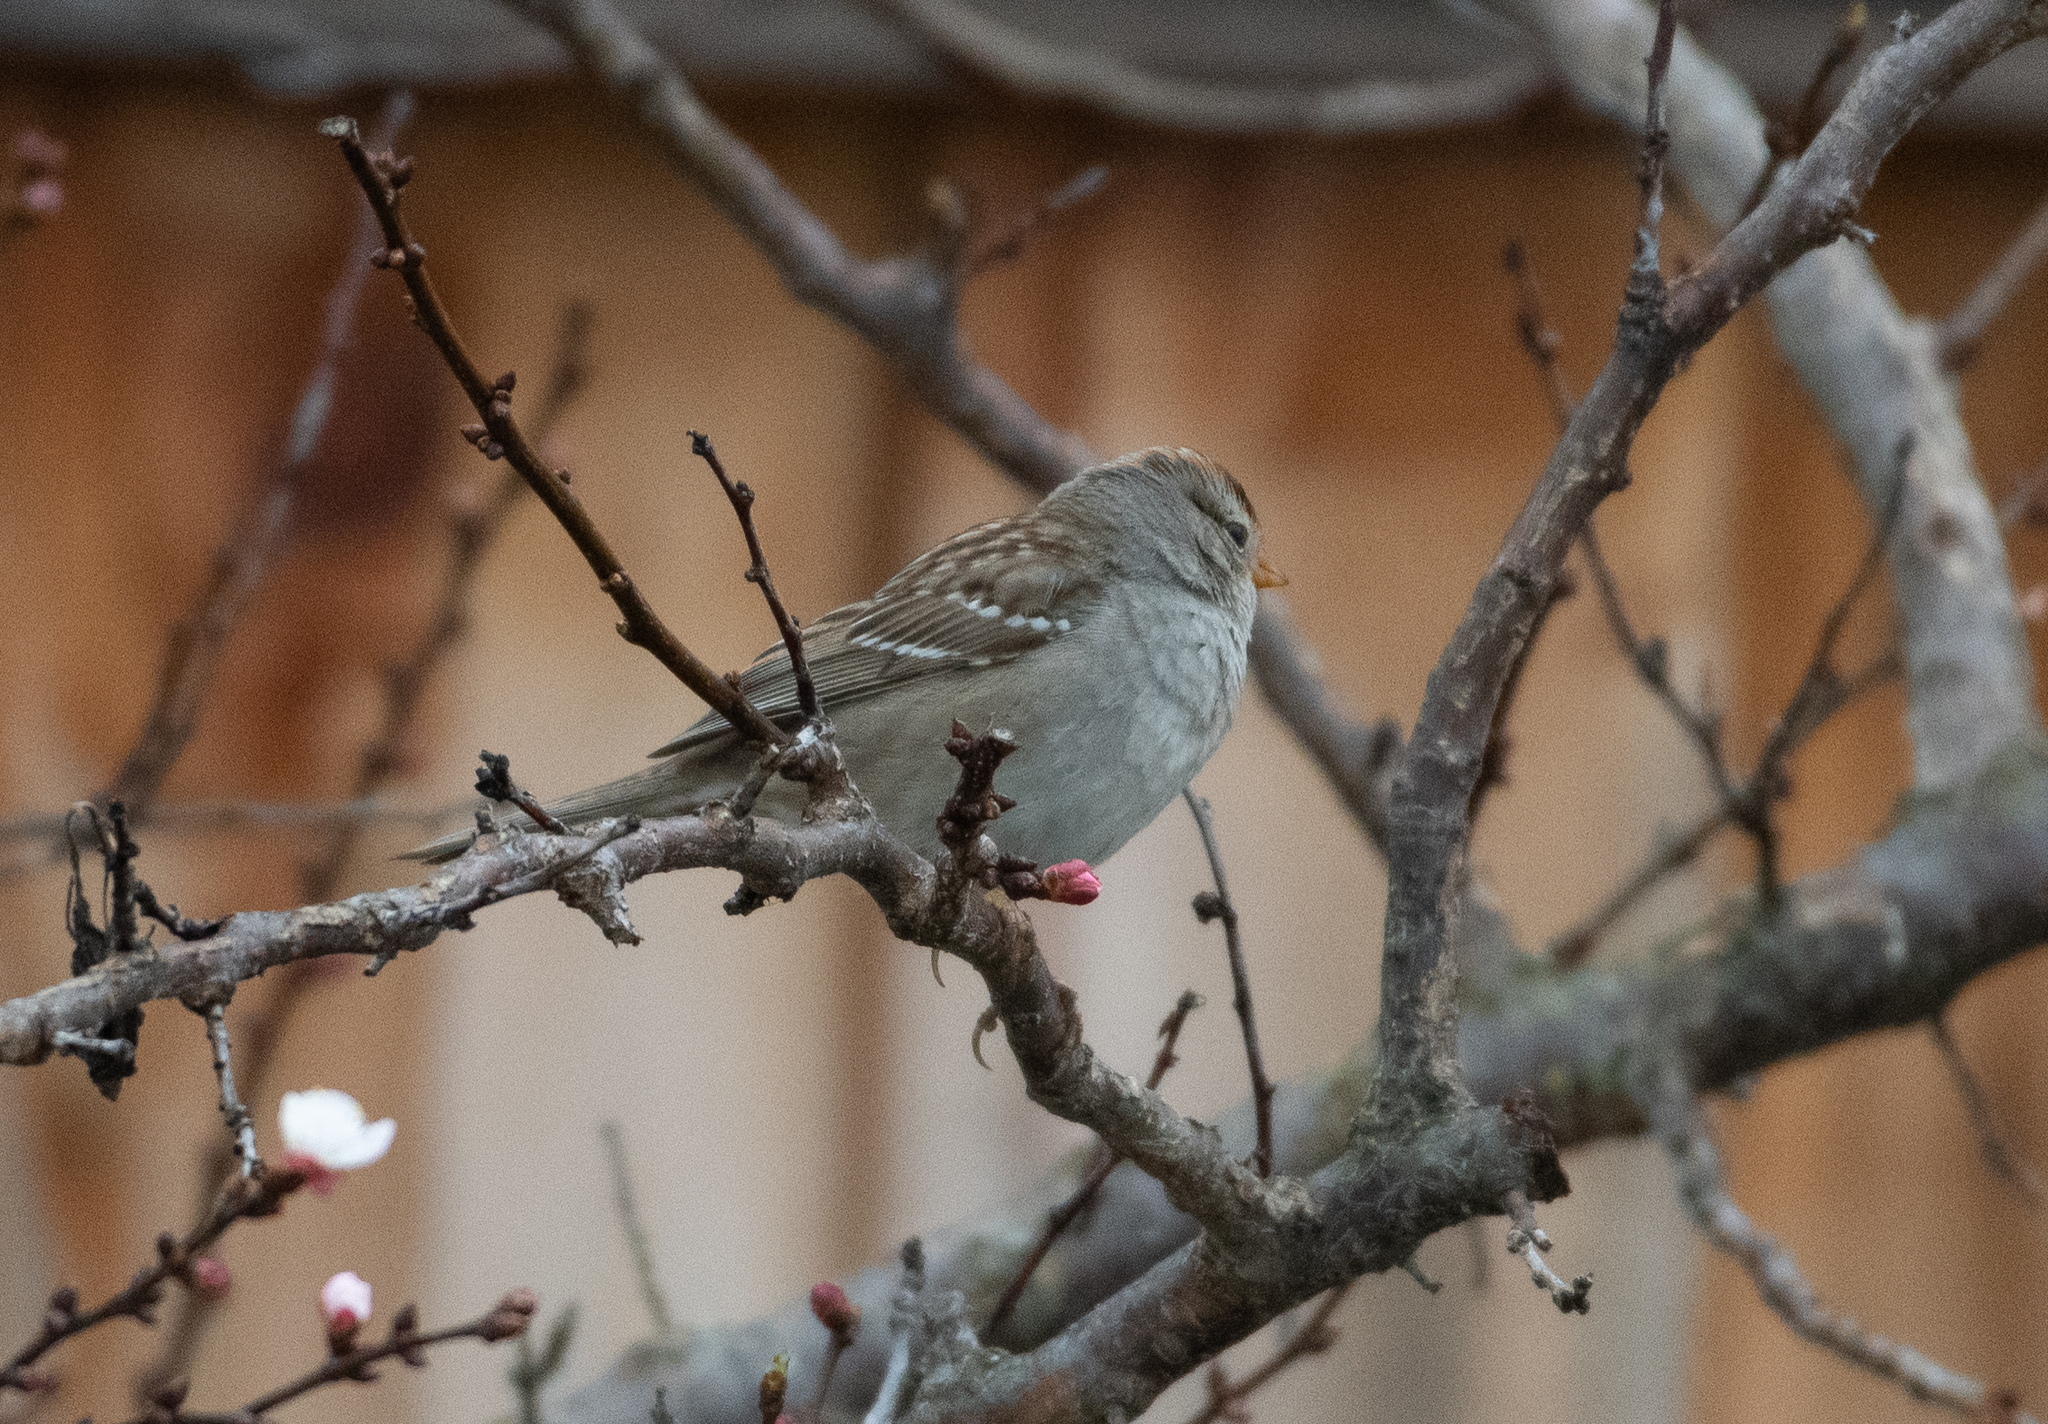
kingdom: Animalia
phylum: Chordata
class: Aves
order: Passeriformes
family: Passerellidae
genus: Zonotrichia
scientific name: Zonotrichia leucophrys
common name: White-crowned sparrow
